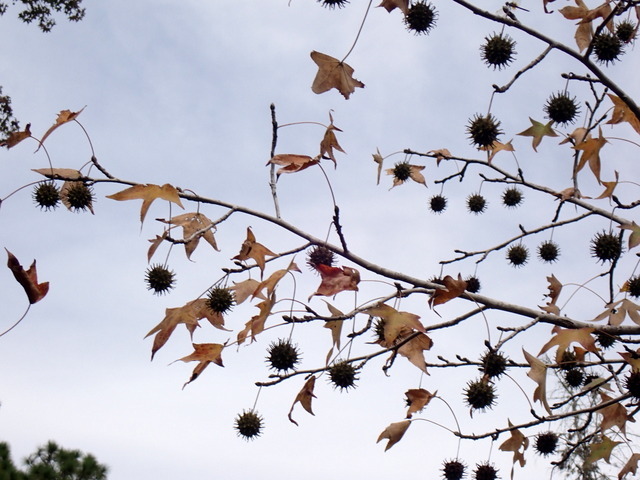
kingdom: Plantae
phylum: Tracheophyta
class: Magnoliopsida
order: Saxifragales
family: Altingiaceae
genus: Liquidambar
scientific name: Liquidambar styraciflua
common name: Sweet gum
